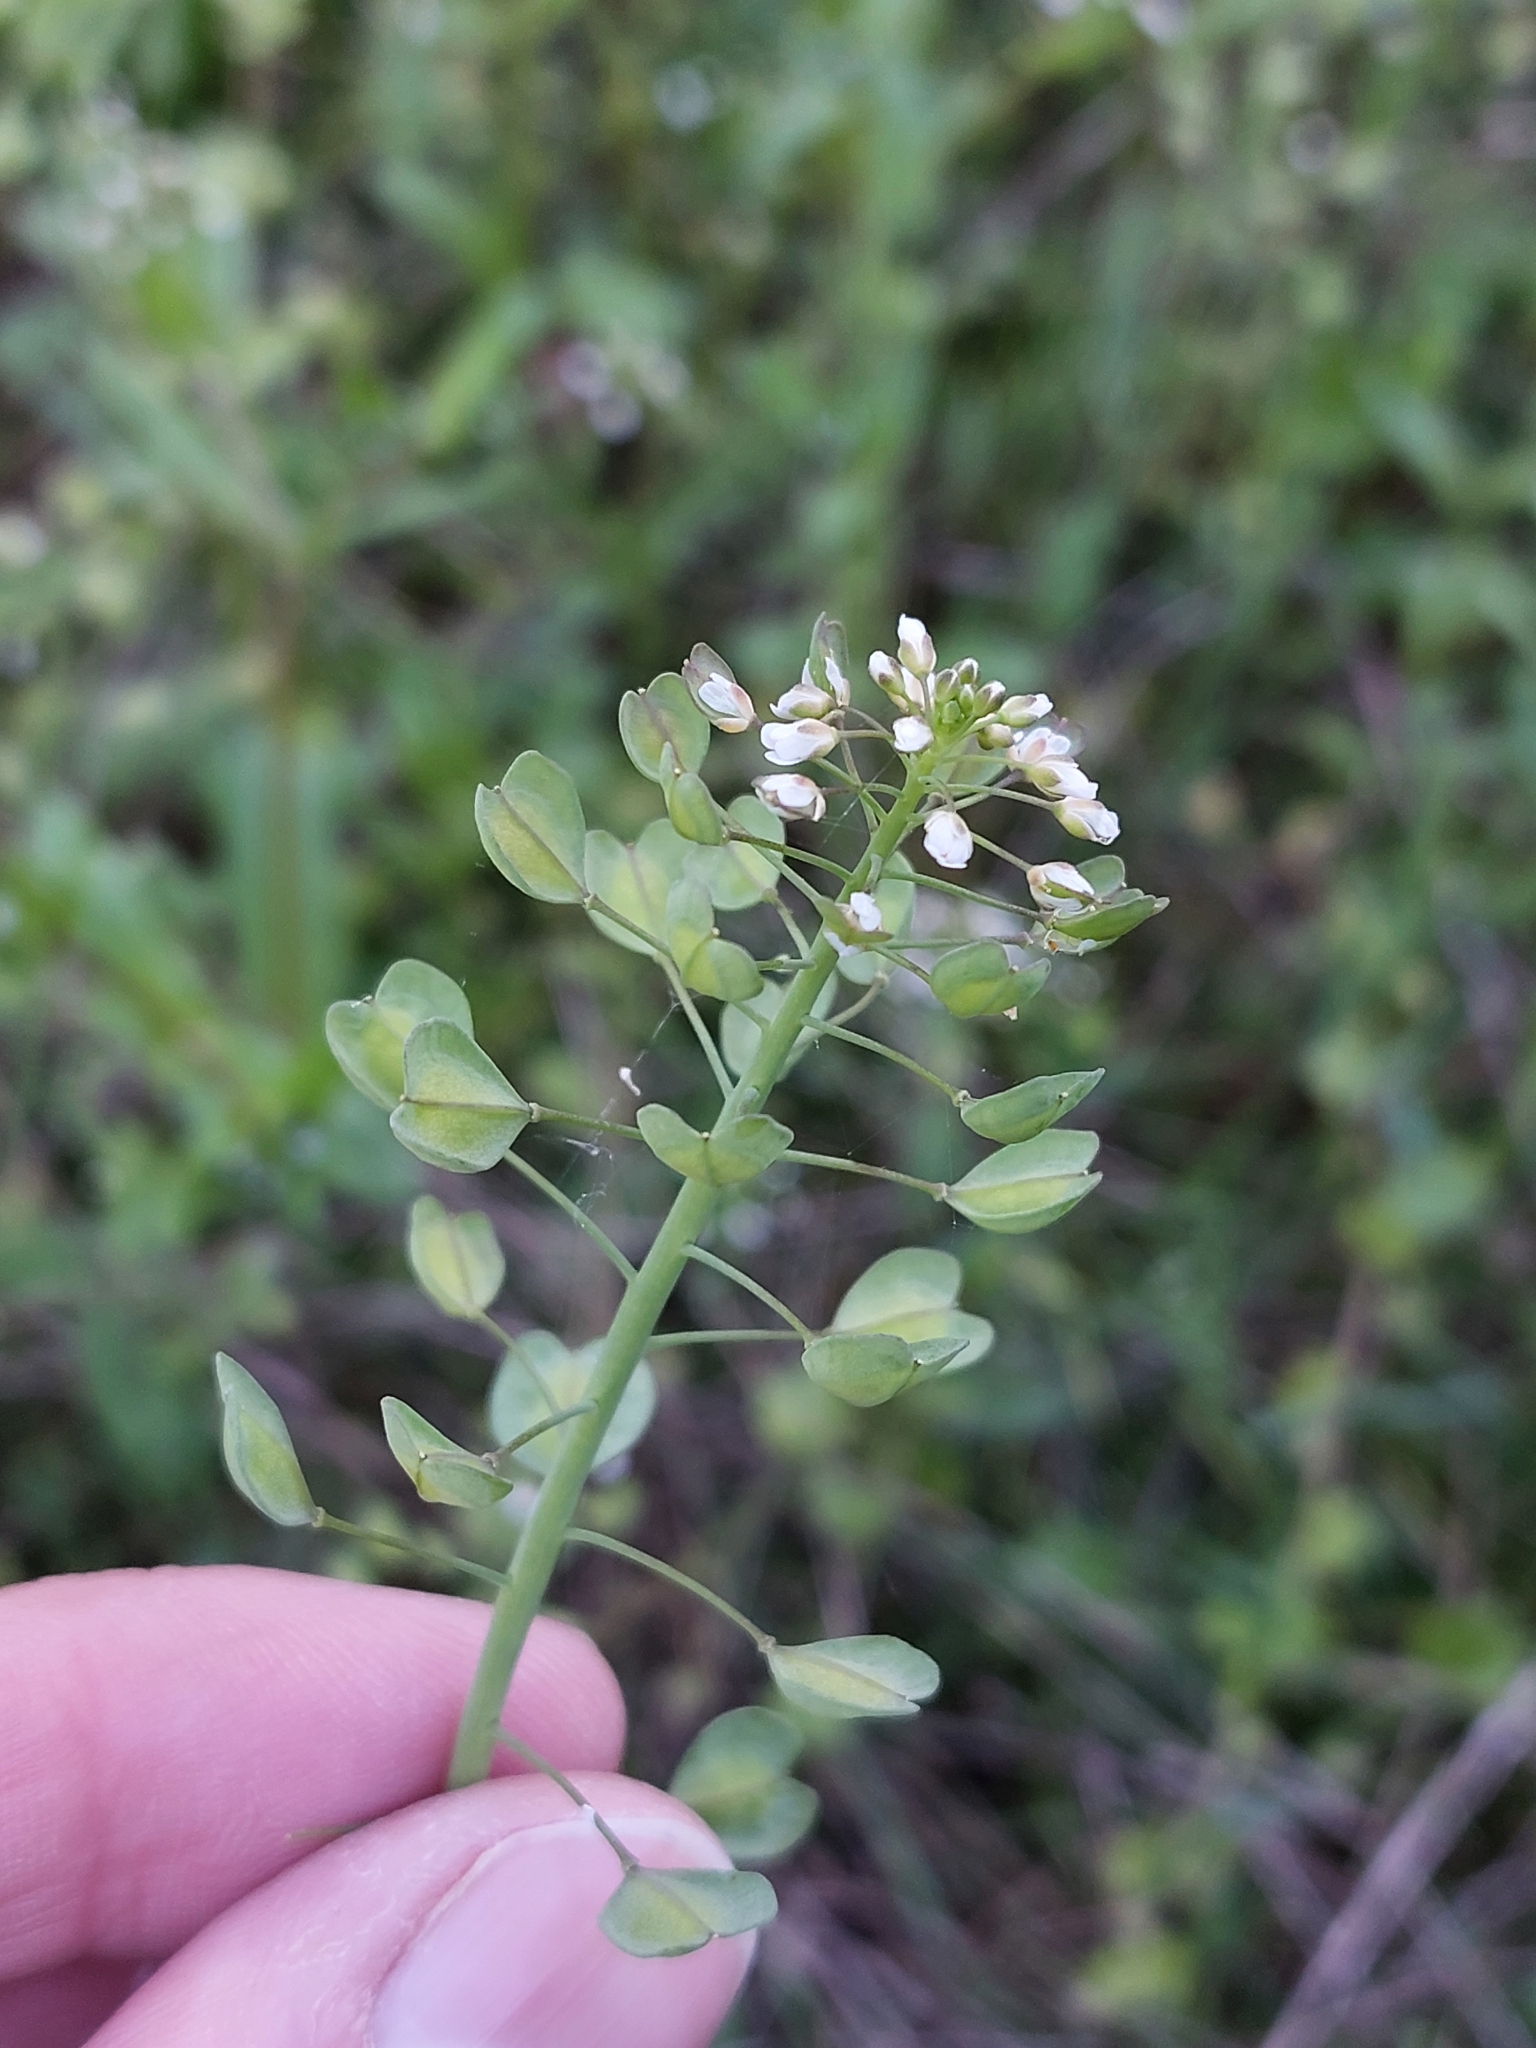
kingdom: Plantae
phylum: Tracheophyta
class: Magnoliopsida
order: Brassicales
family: Brassicaceae
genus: Noccaea
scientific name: Noccaea perfoliata
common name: Perfoliate pennycress
